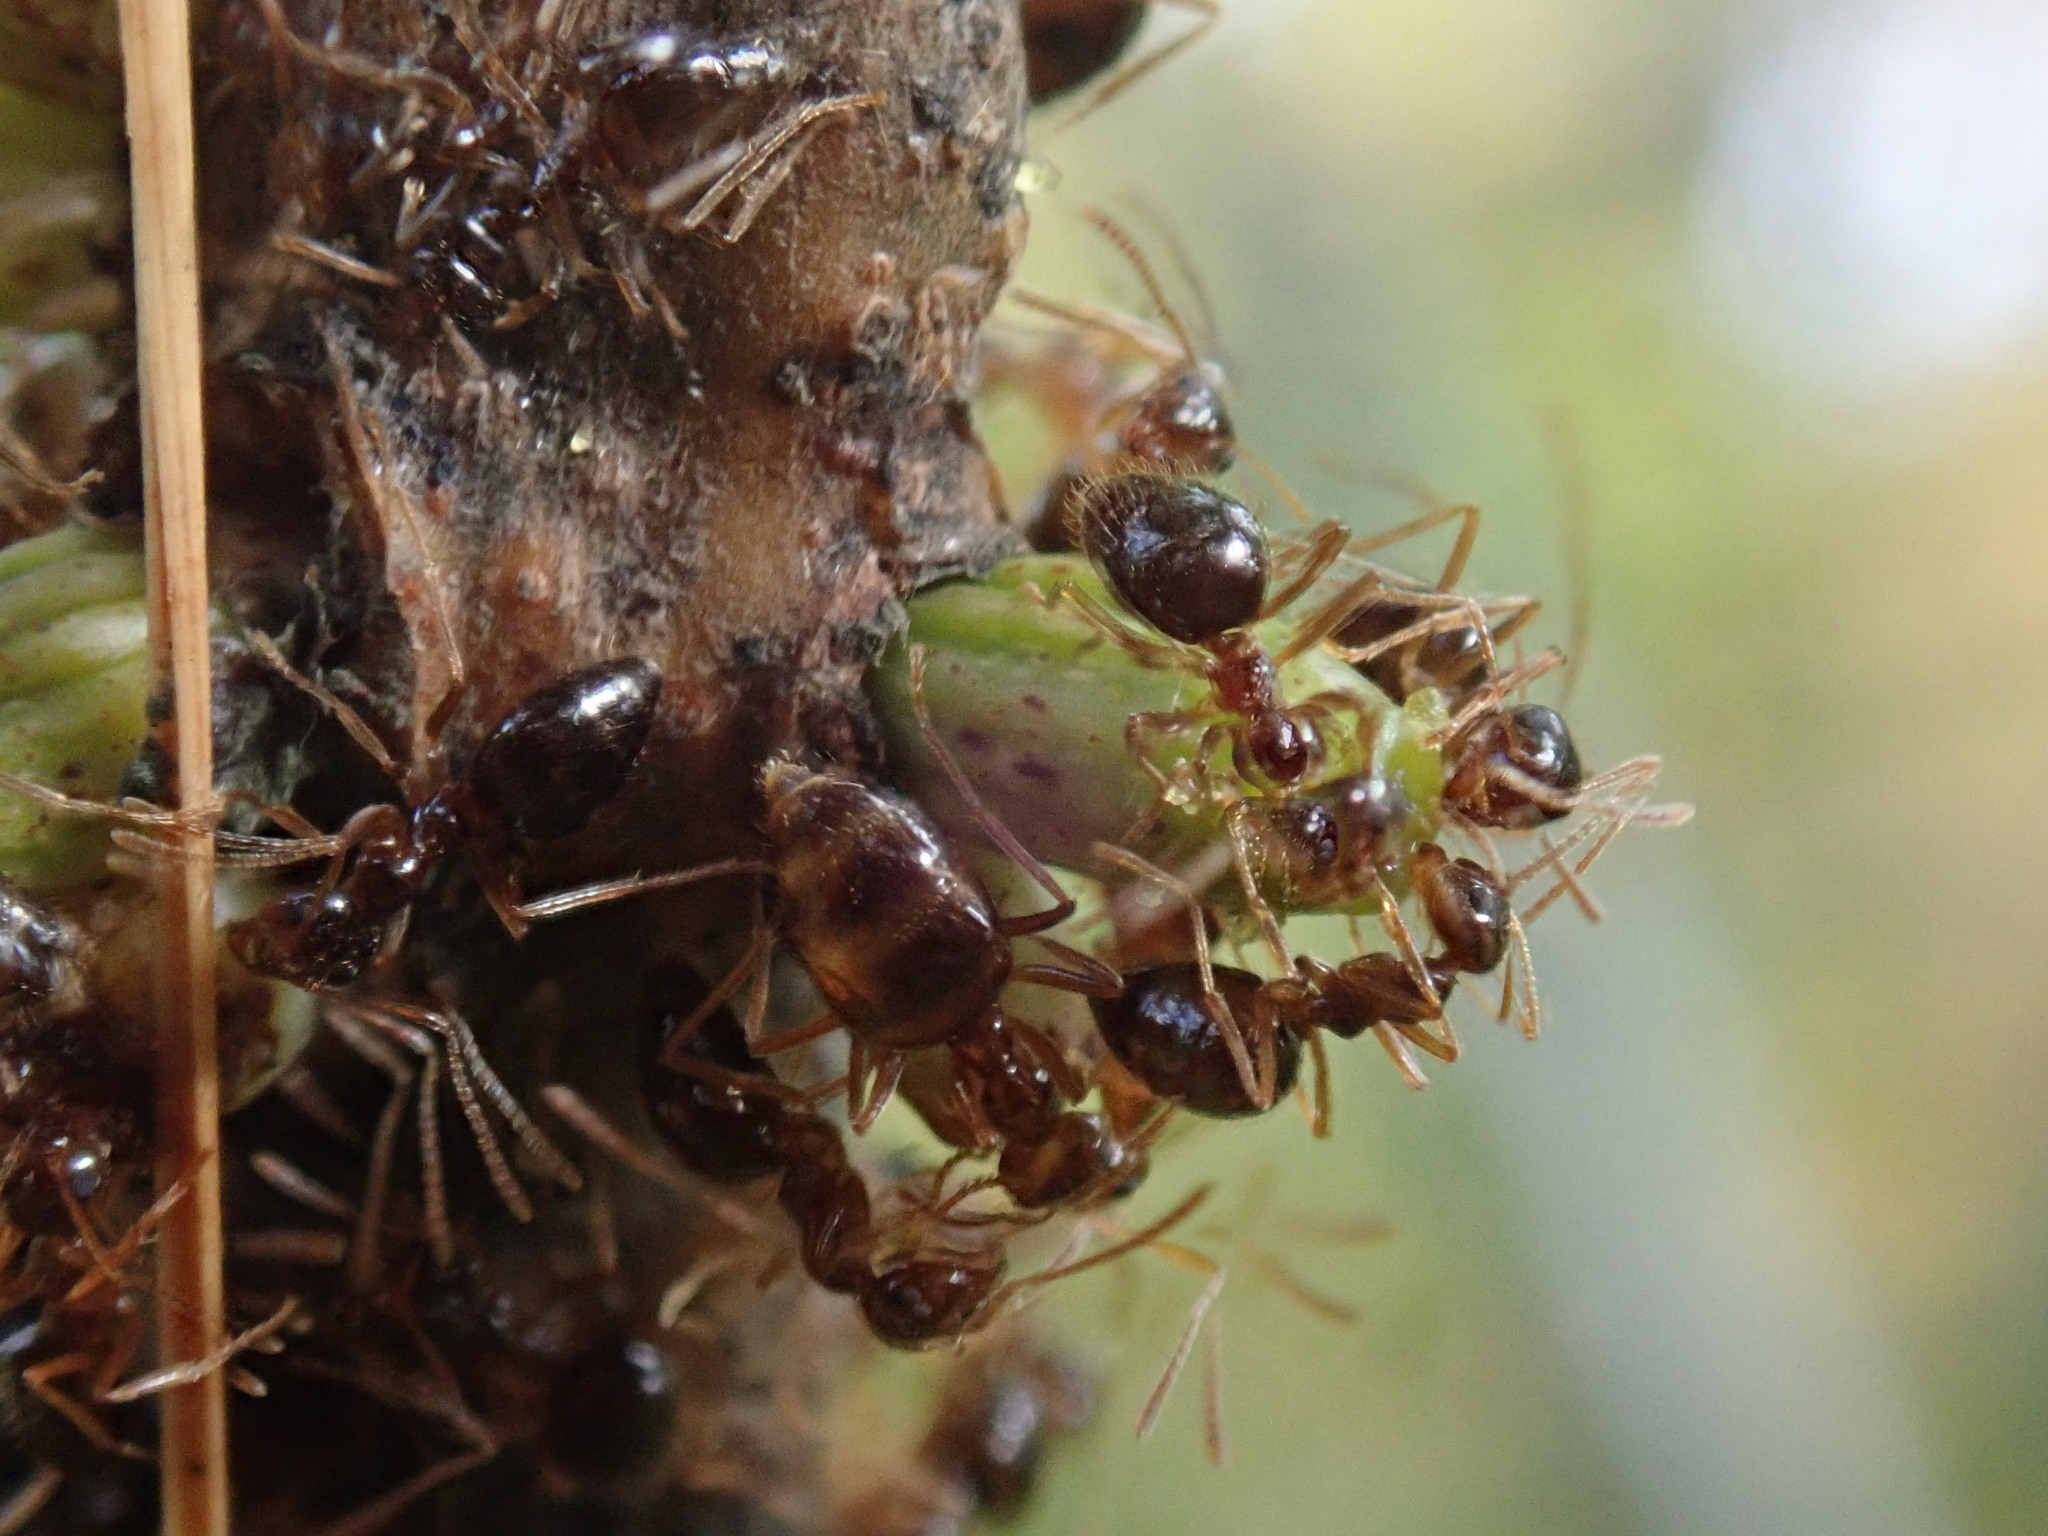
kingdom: Animalia
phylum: Arthropoda
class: Insecta
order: Hymenoptera
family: Cynipidae
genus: Callirhytis
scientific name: Callirhytis
